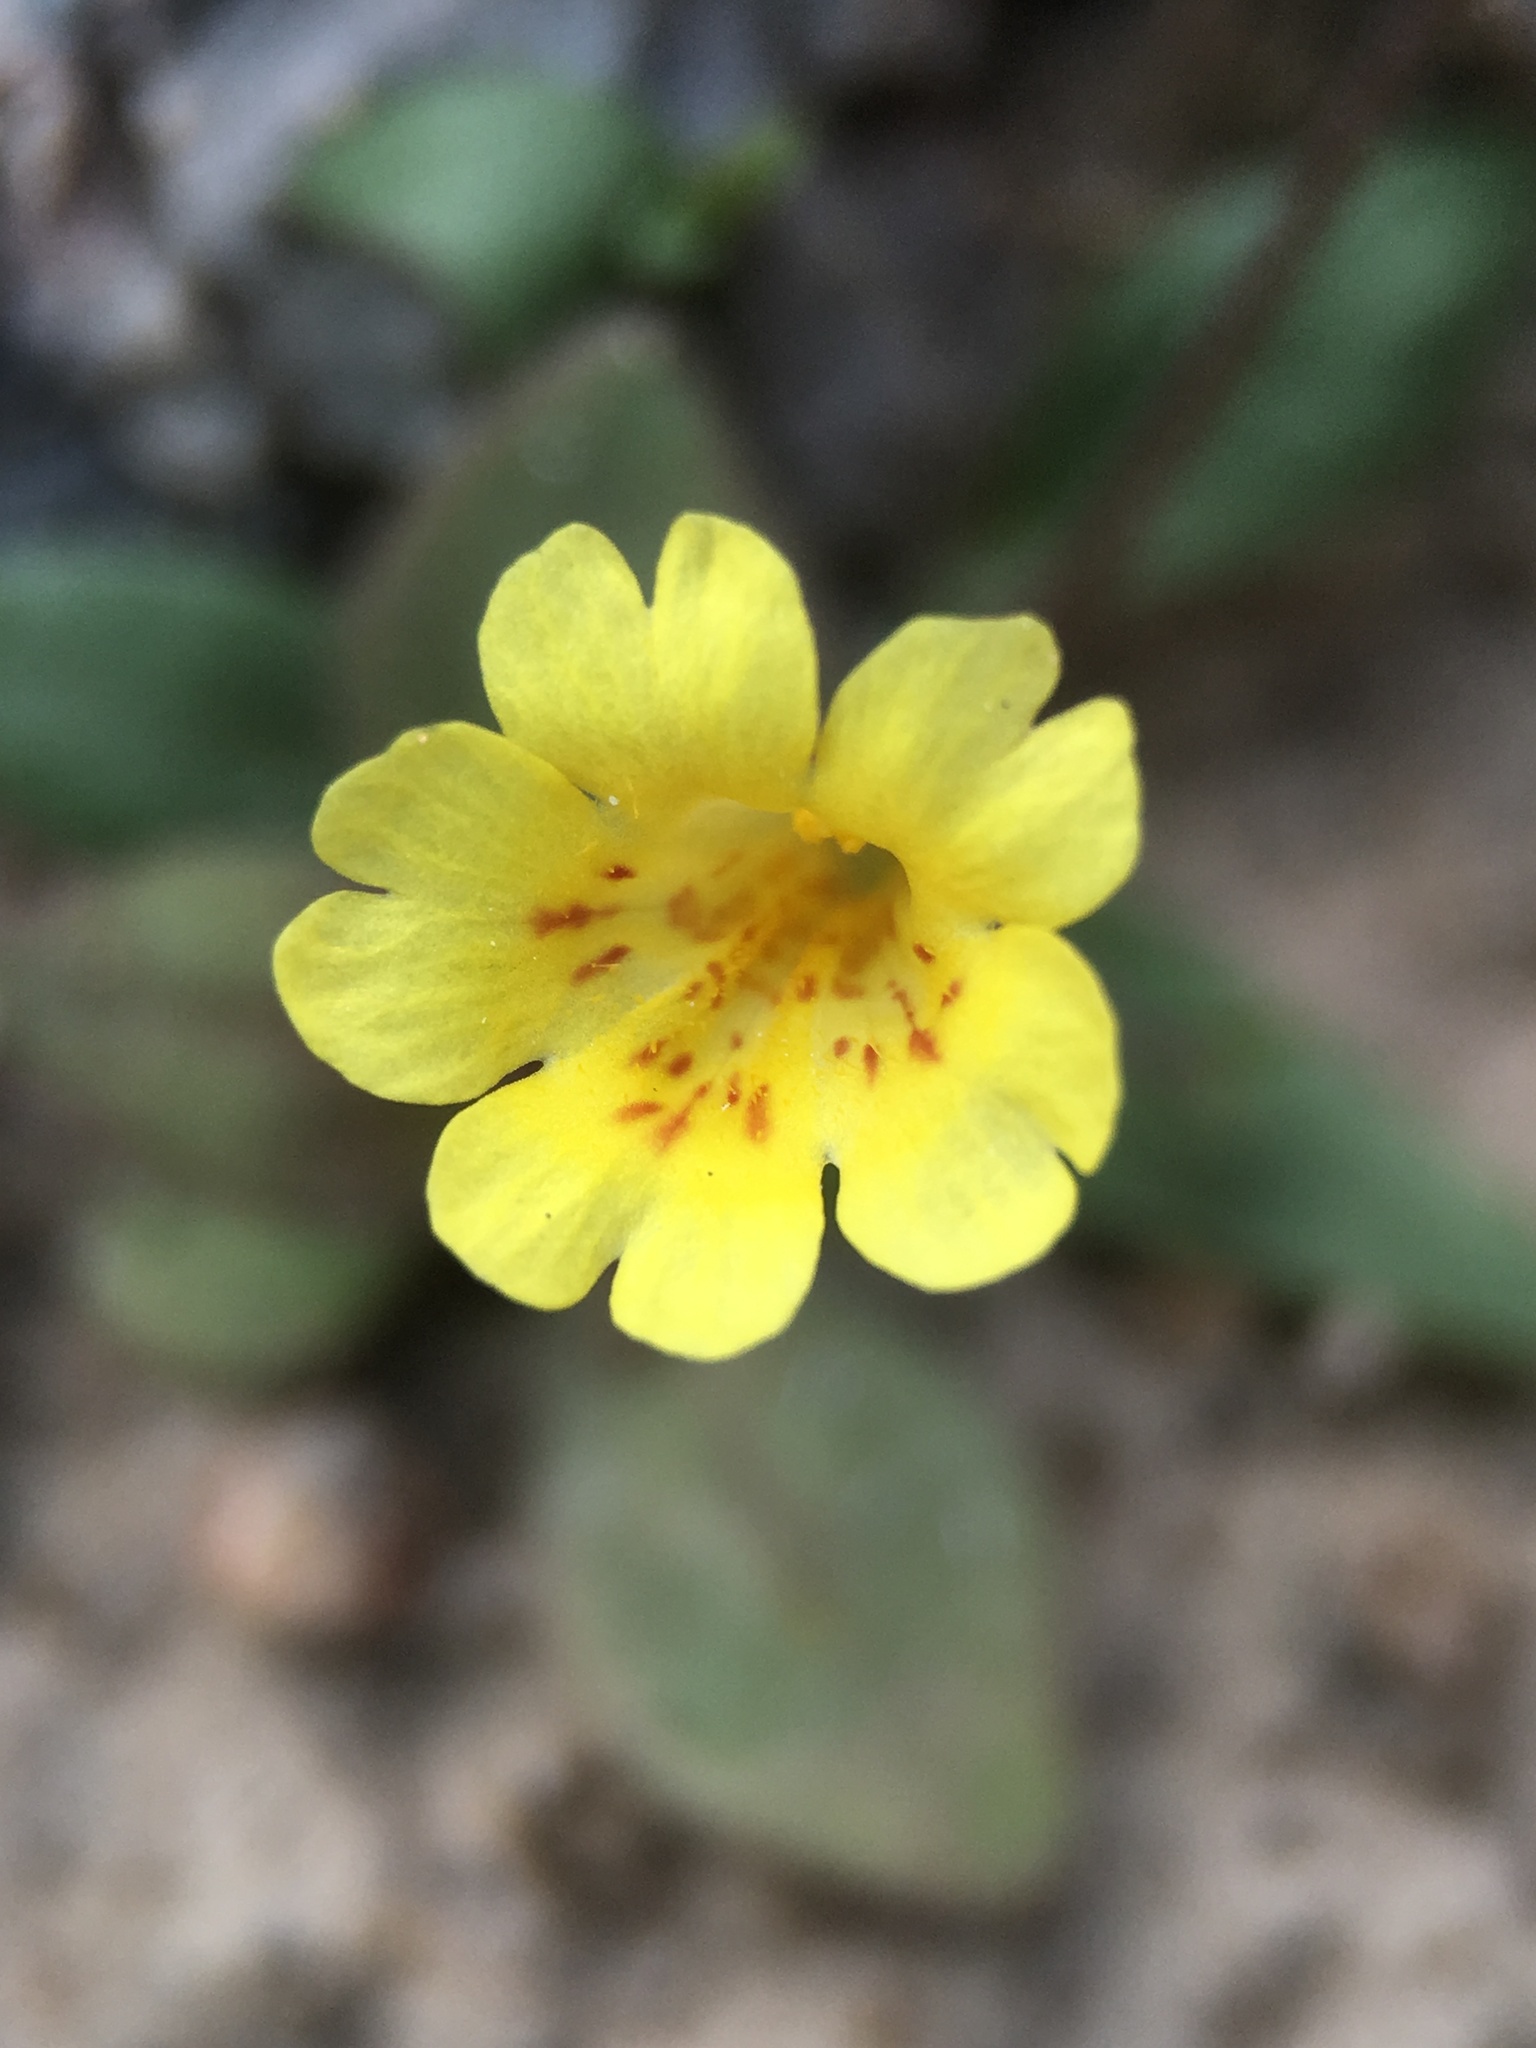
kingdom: Plantae
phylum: Tracheophyta
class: Magnoliopsida
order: Lamiales
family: Phrymaceae
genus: Erythranthe
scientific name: Erythranthe calcicola
